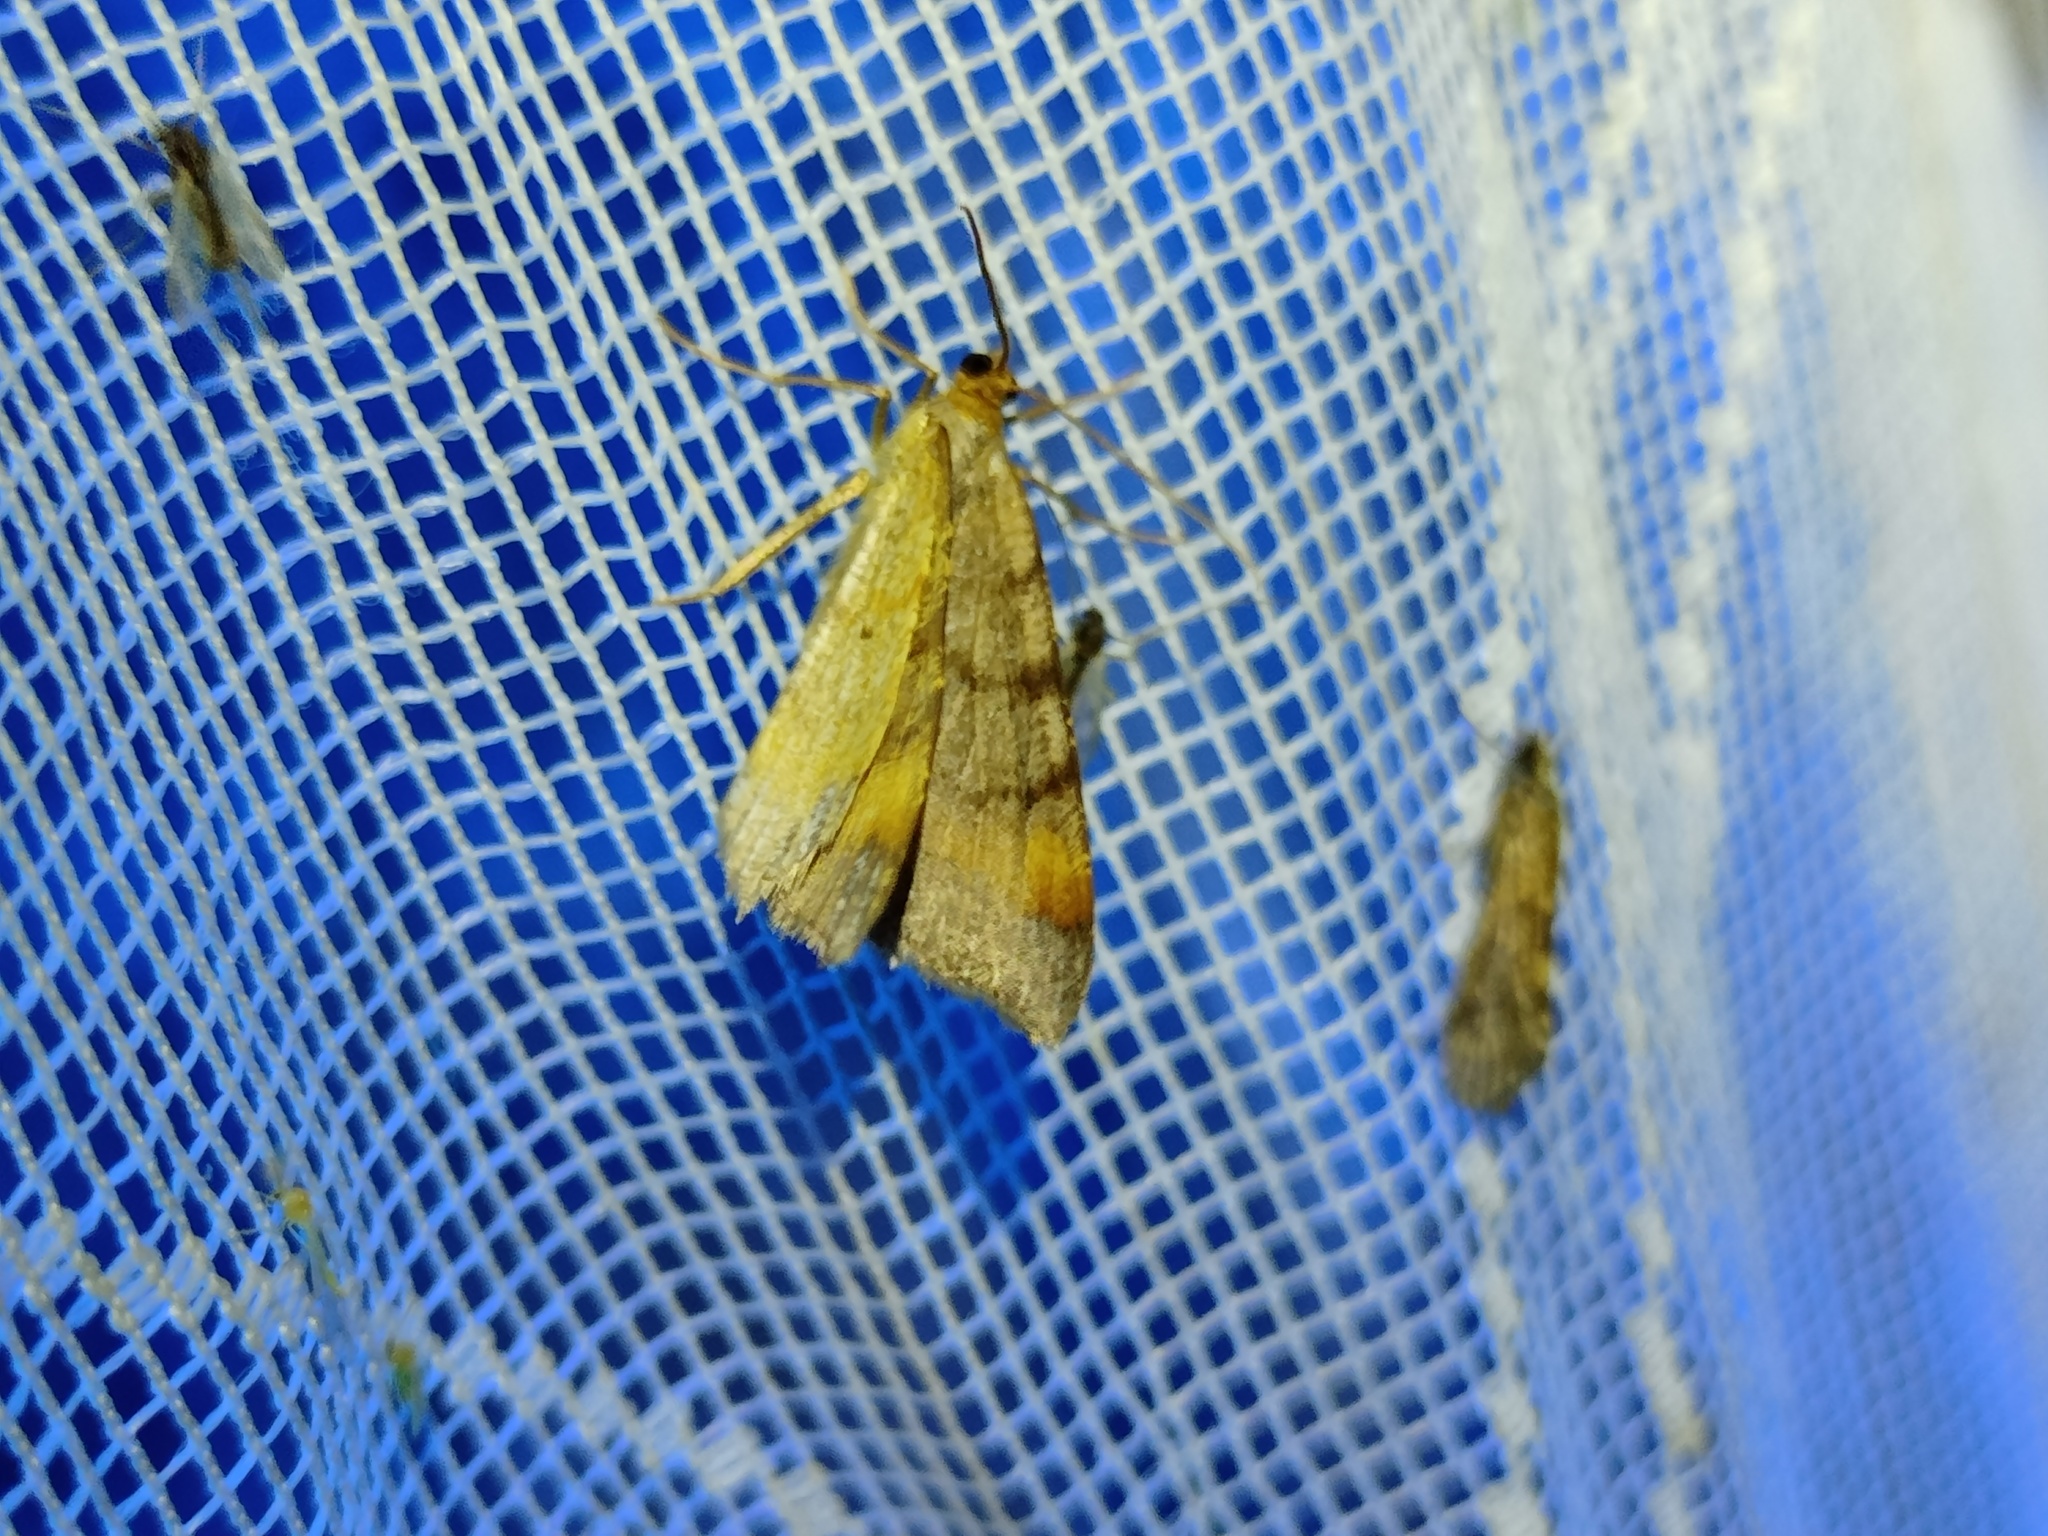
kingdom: Animalia
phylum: Arthropoda
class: Insecta
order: Lepidoptera
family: Geometridae
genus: Macaria
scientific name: Macaria liturata
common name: Tawny-barred angle
